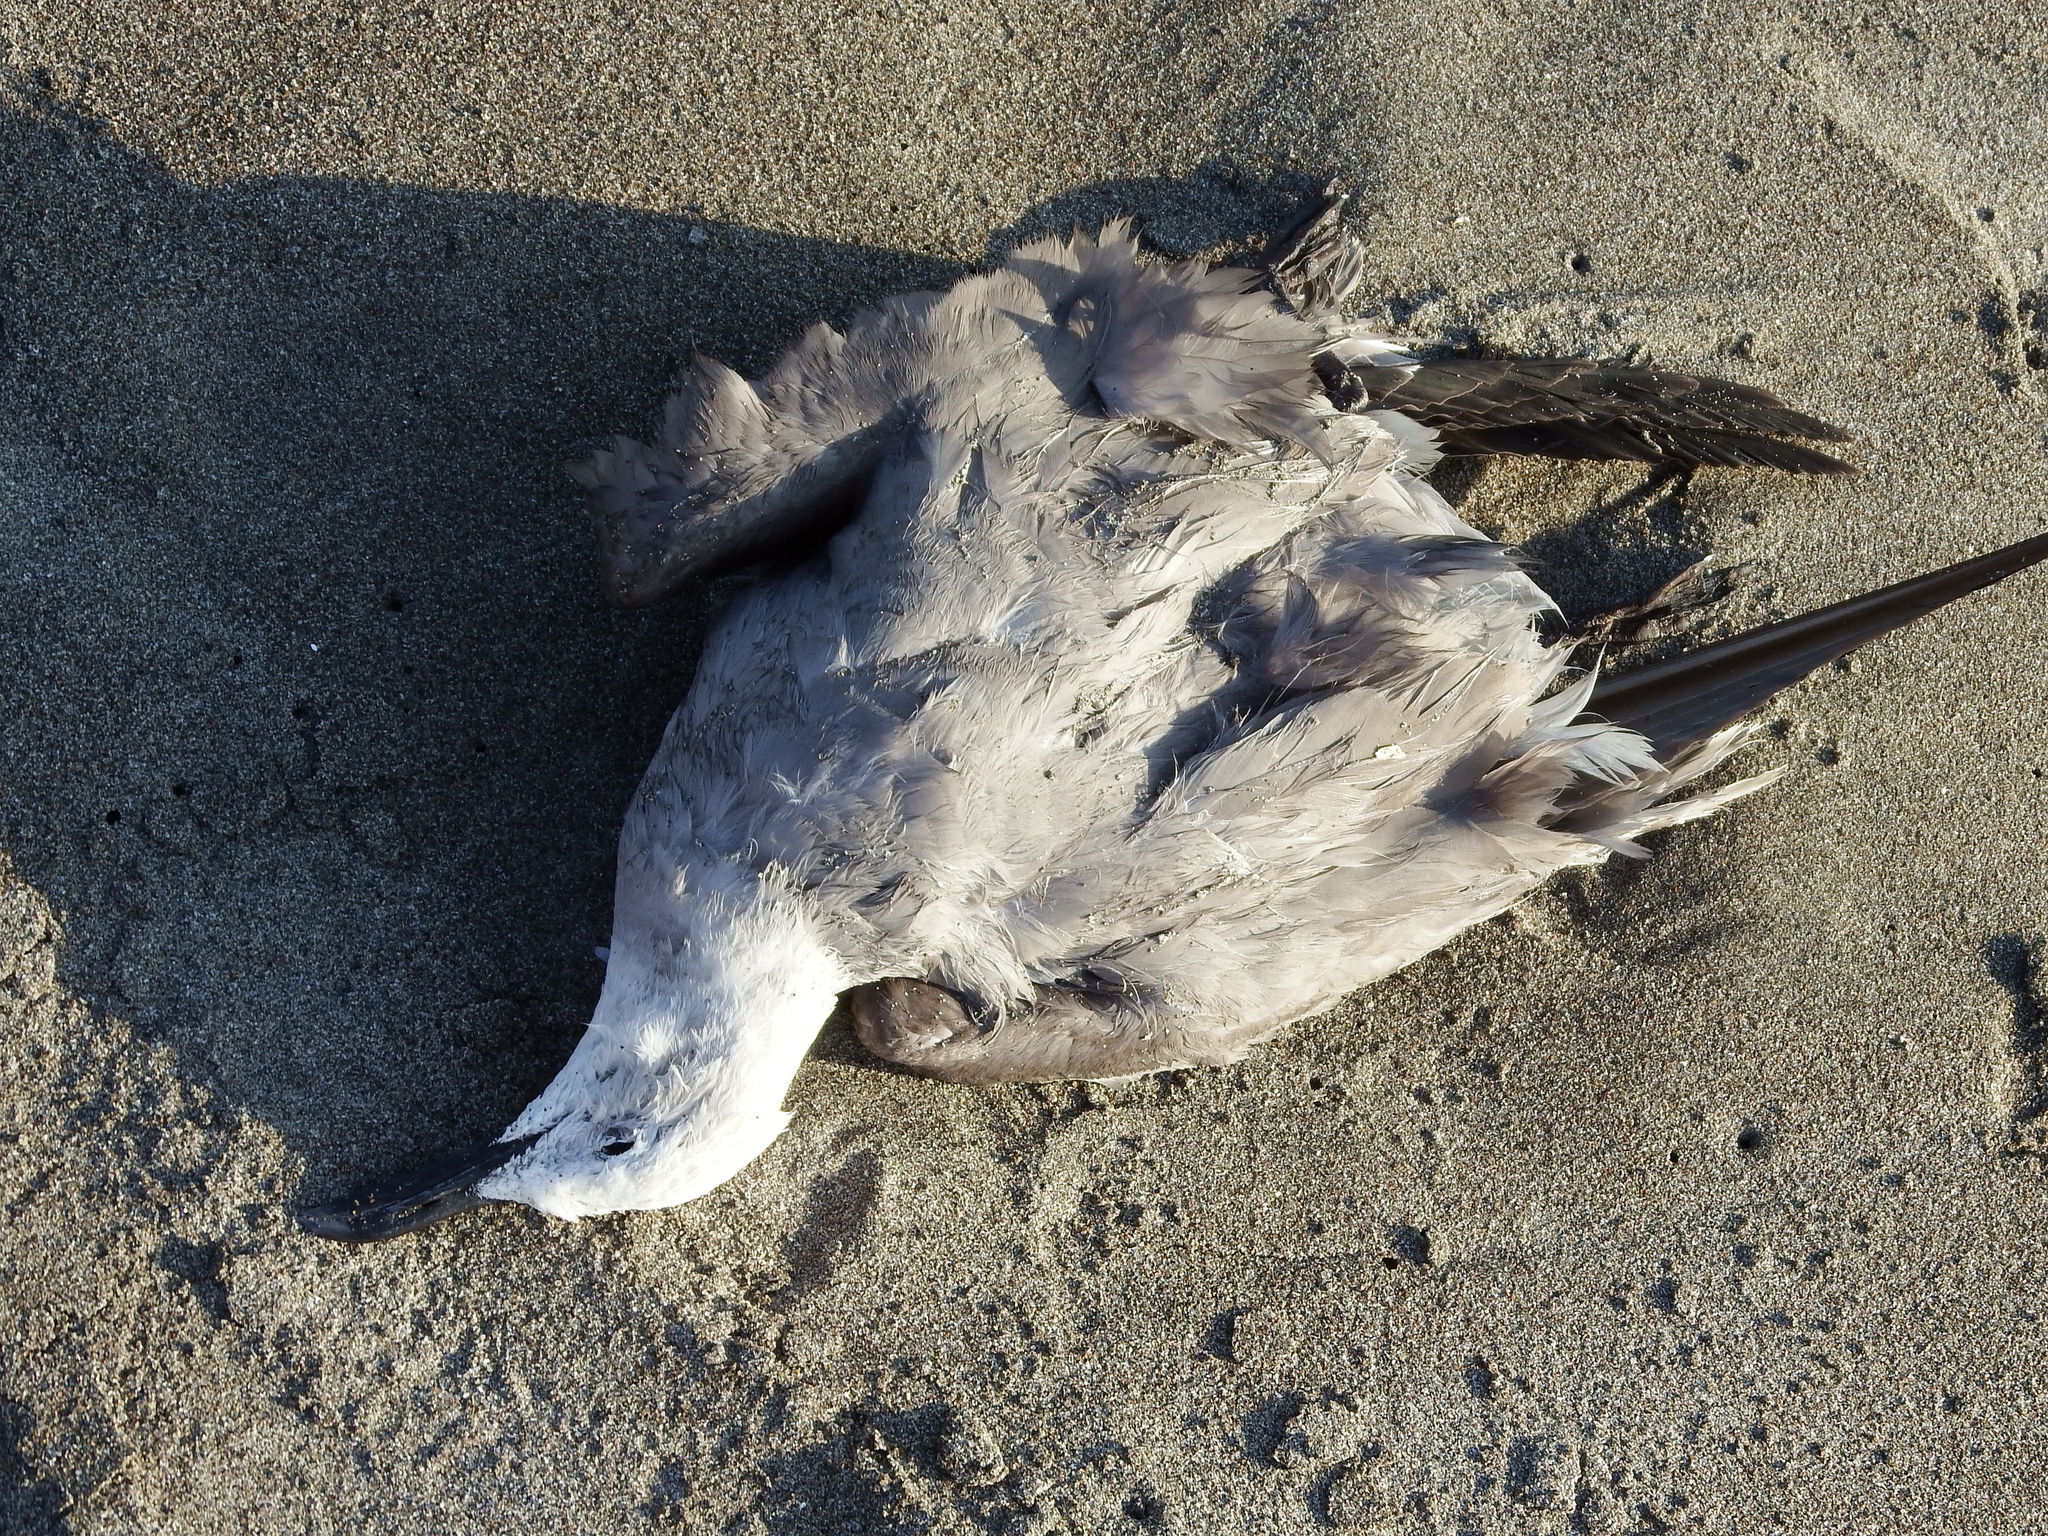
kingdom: Animalia
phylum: Chordata
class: Aves
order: Charadriiformes
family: Laridae
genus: Leucophaeus
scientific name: Leucophaeus modestus
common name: Gray gull
